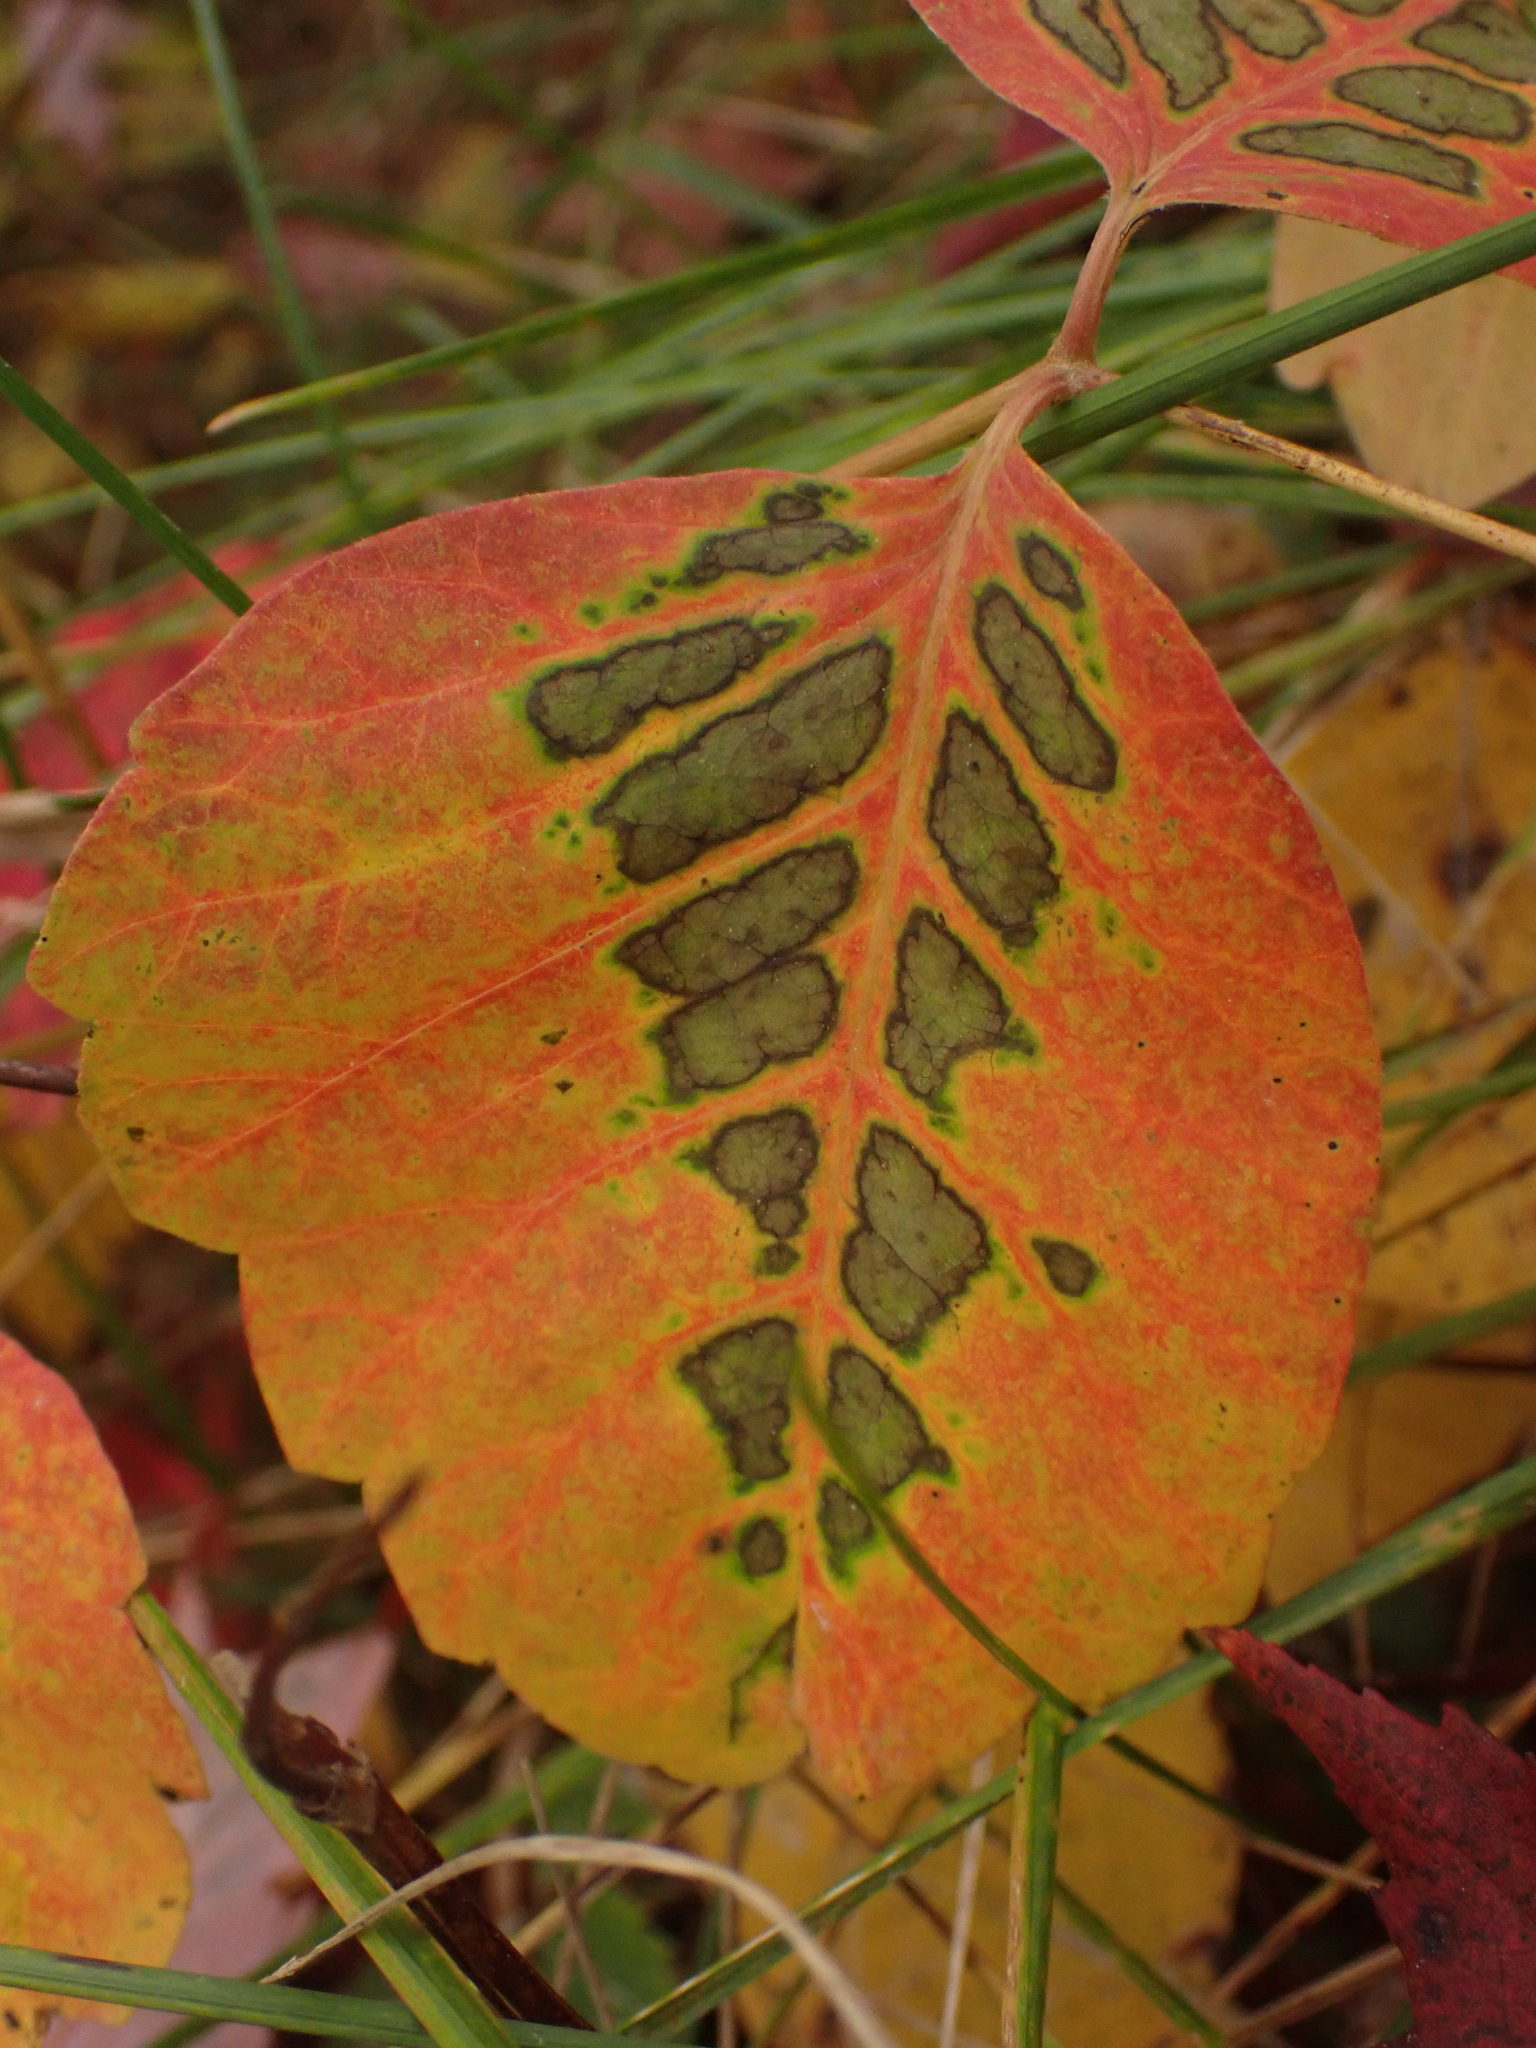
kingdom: Plantae
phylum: Tracheophyta
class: Magnoliopsida
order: Sapindales
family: Anacardiaceae
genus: Toxicodendron
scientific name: Toxicodendron radicans
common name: Poison ivy
